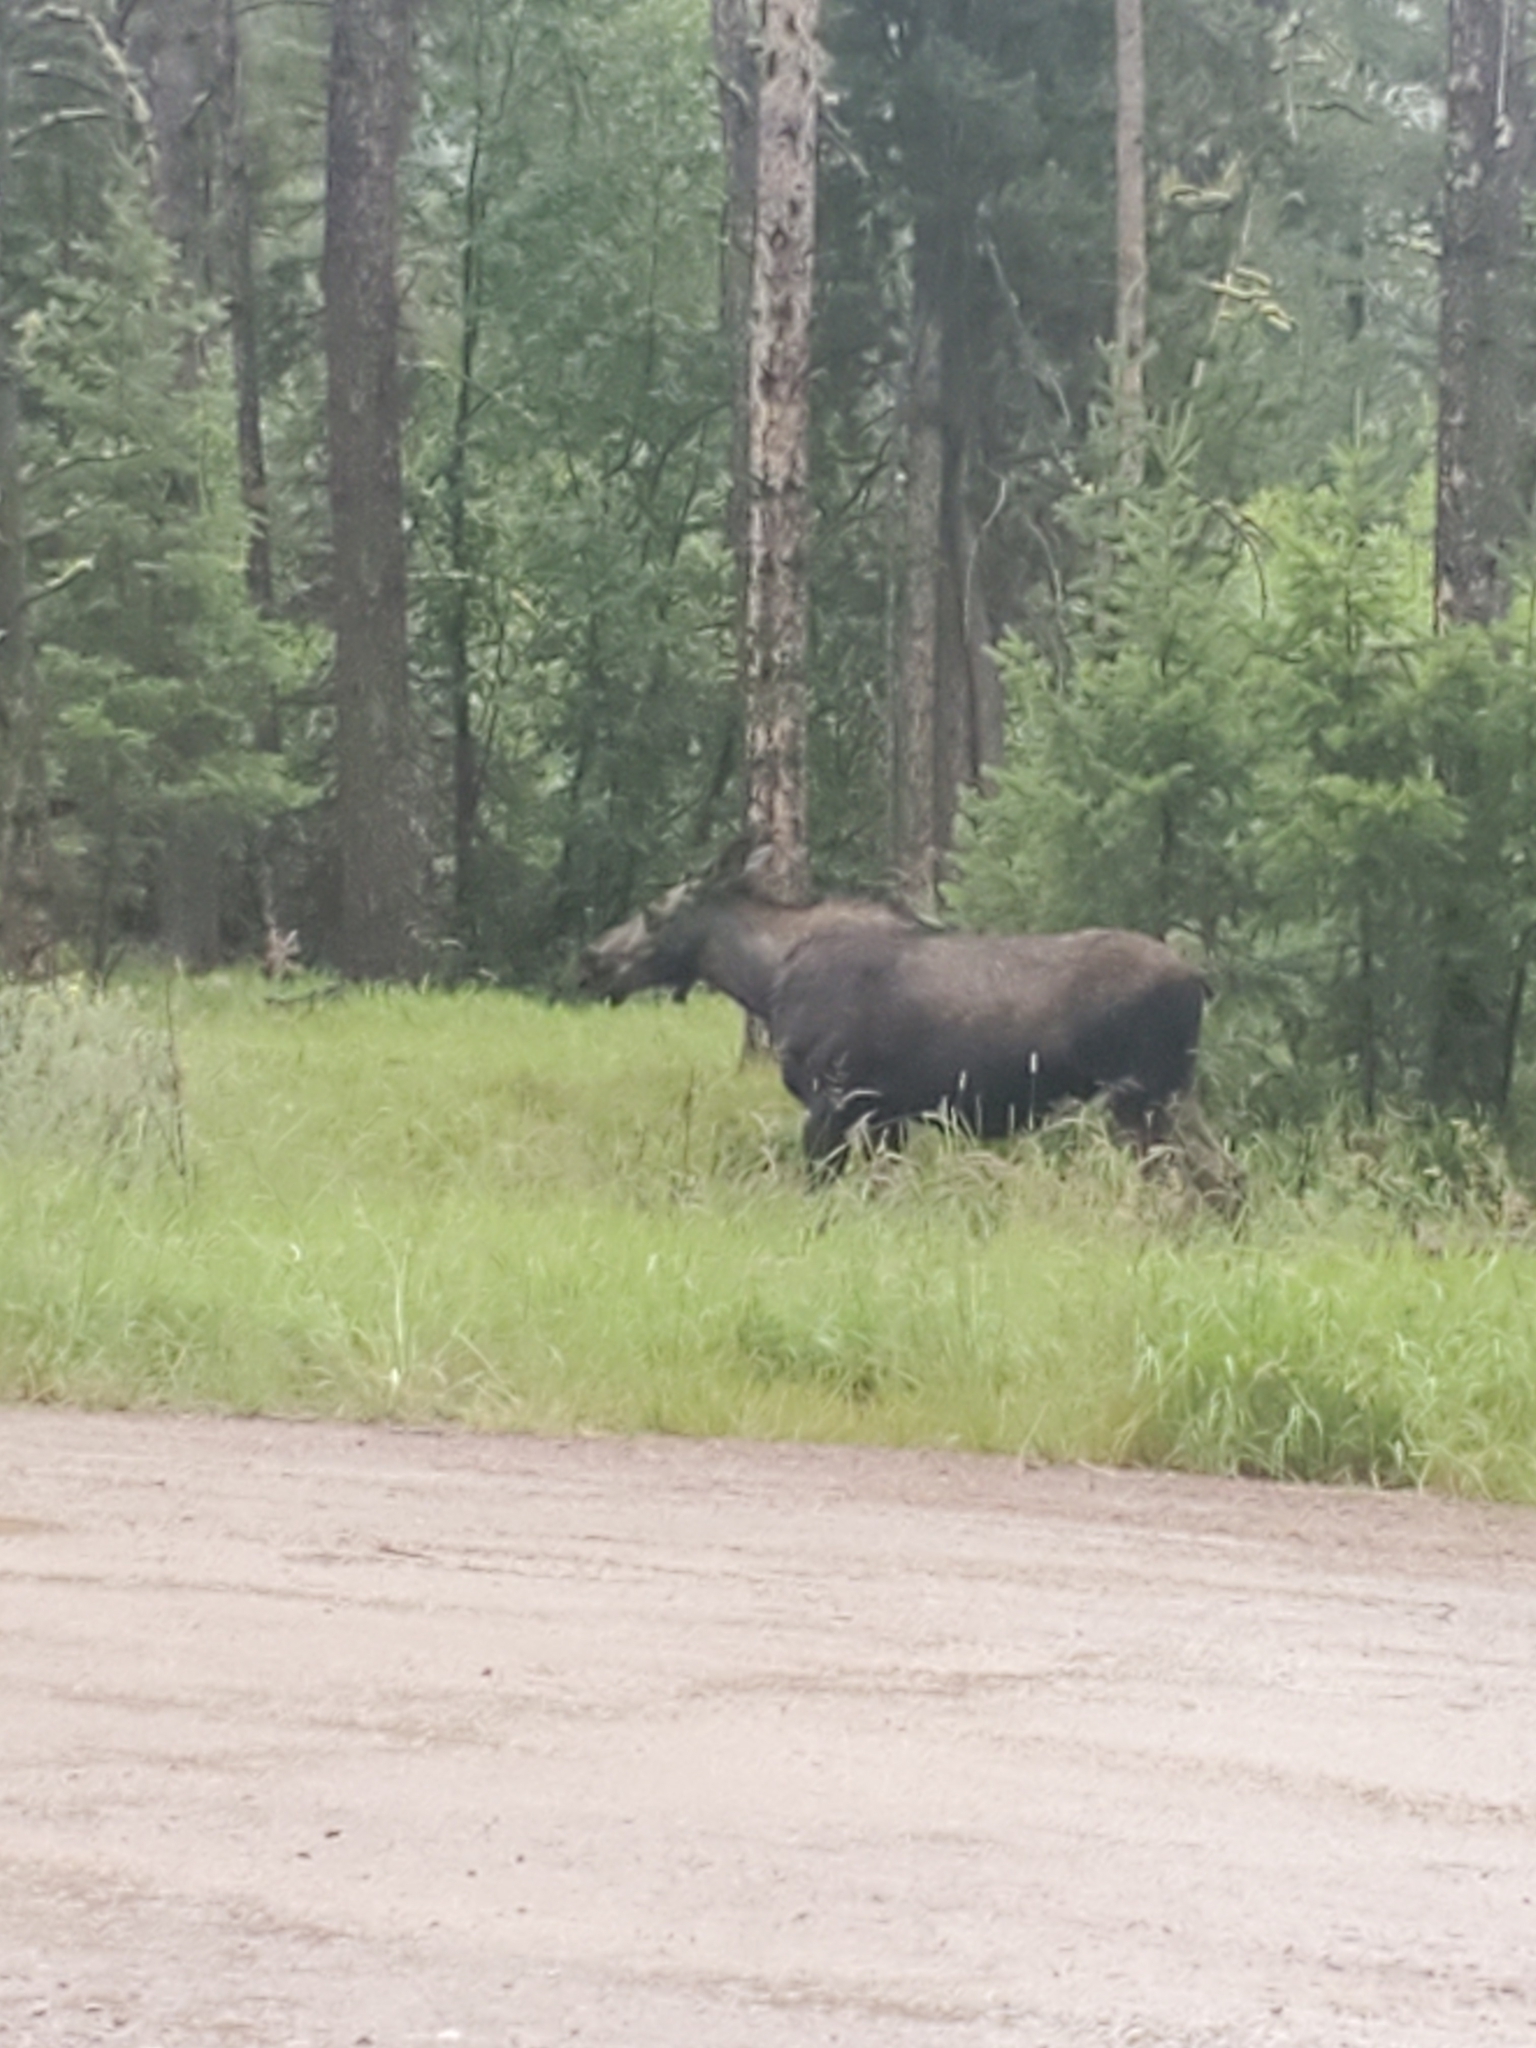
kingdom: Animalia
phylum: Chordata
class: Mammalia
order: Artiodactyla
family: Cervidae
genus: Alces
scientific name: Alces alces
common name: Moose
